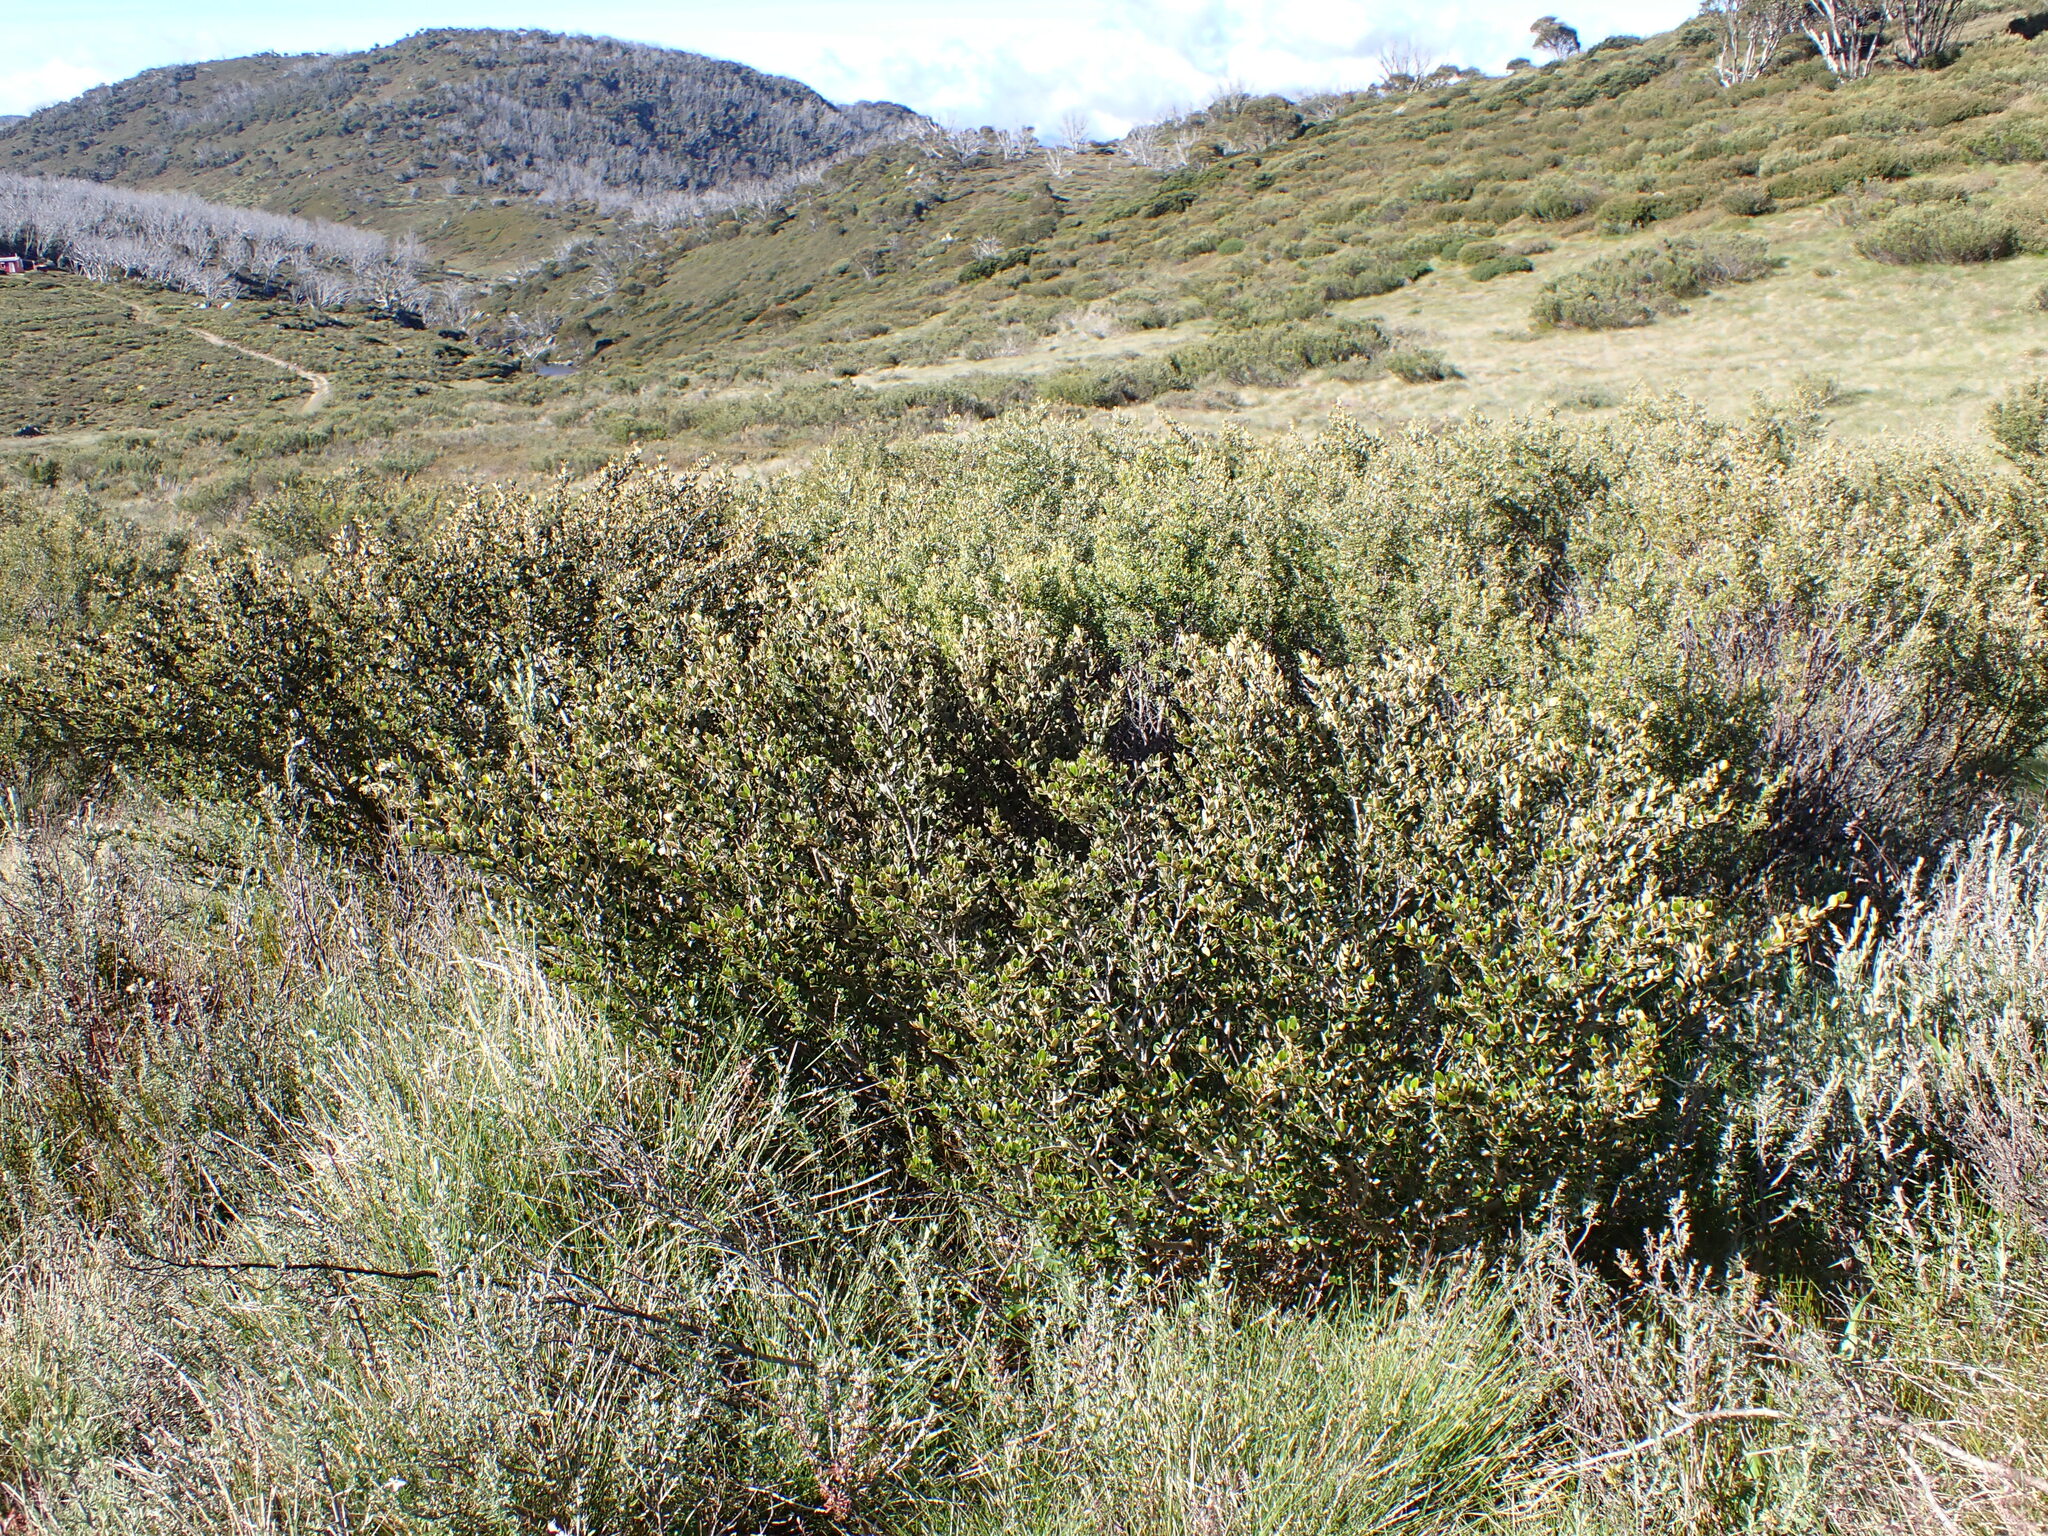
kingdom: Plantae
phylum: Tracheophyta
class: Magnoliopsida
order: Sapindales
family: Rutaceae
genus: Nematolepis
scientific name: Nematolepis ovatifolia
